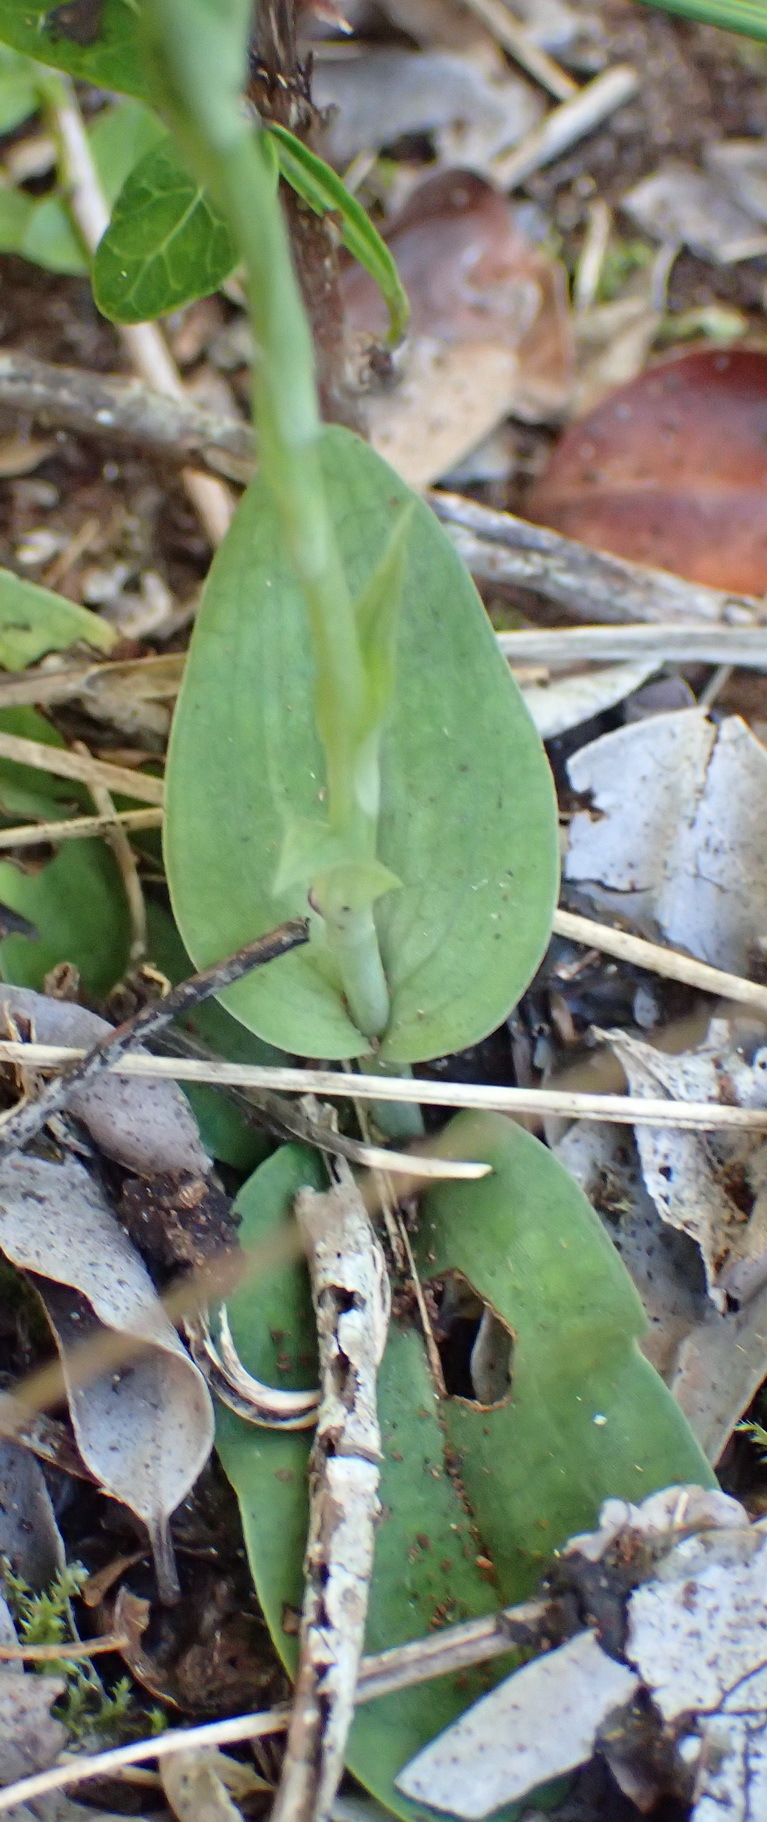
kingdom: Plantae
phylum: Tracheophyta
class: Liliopsida
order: Asparagales
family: Orchidaceae
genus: Habenaria
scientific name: Habenaria arenaria
